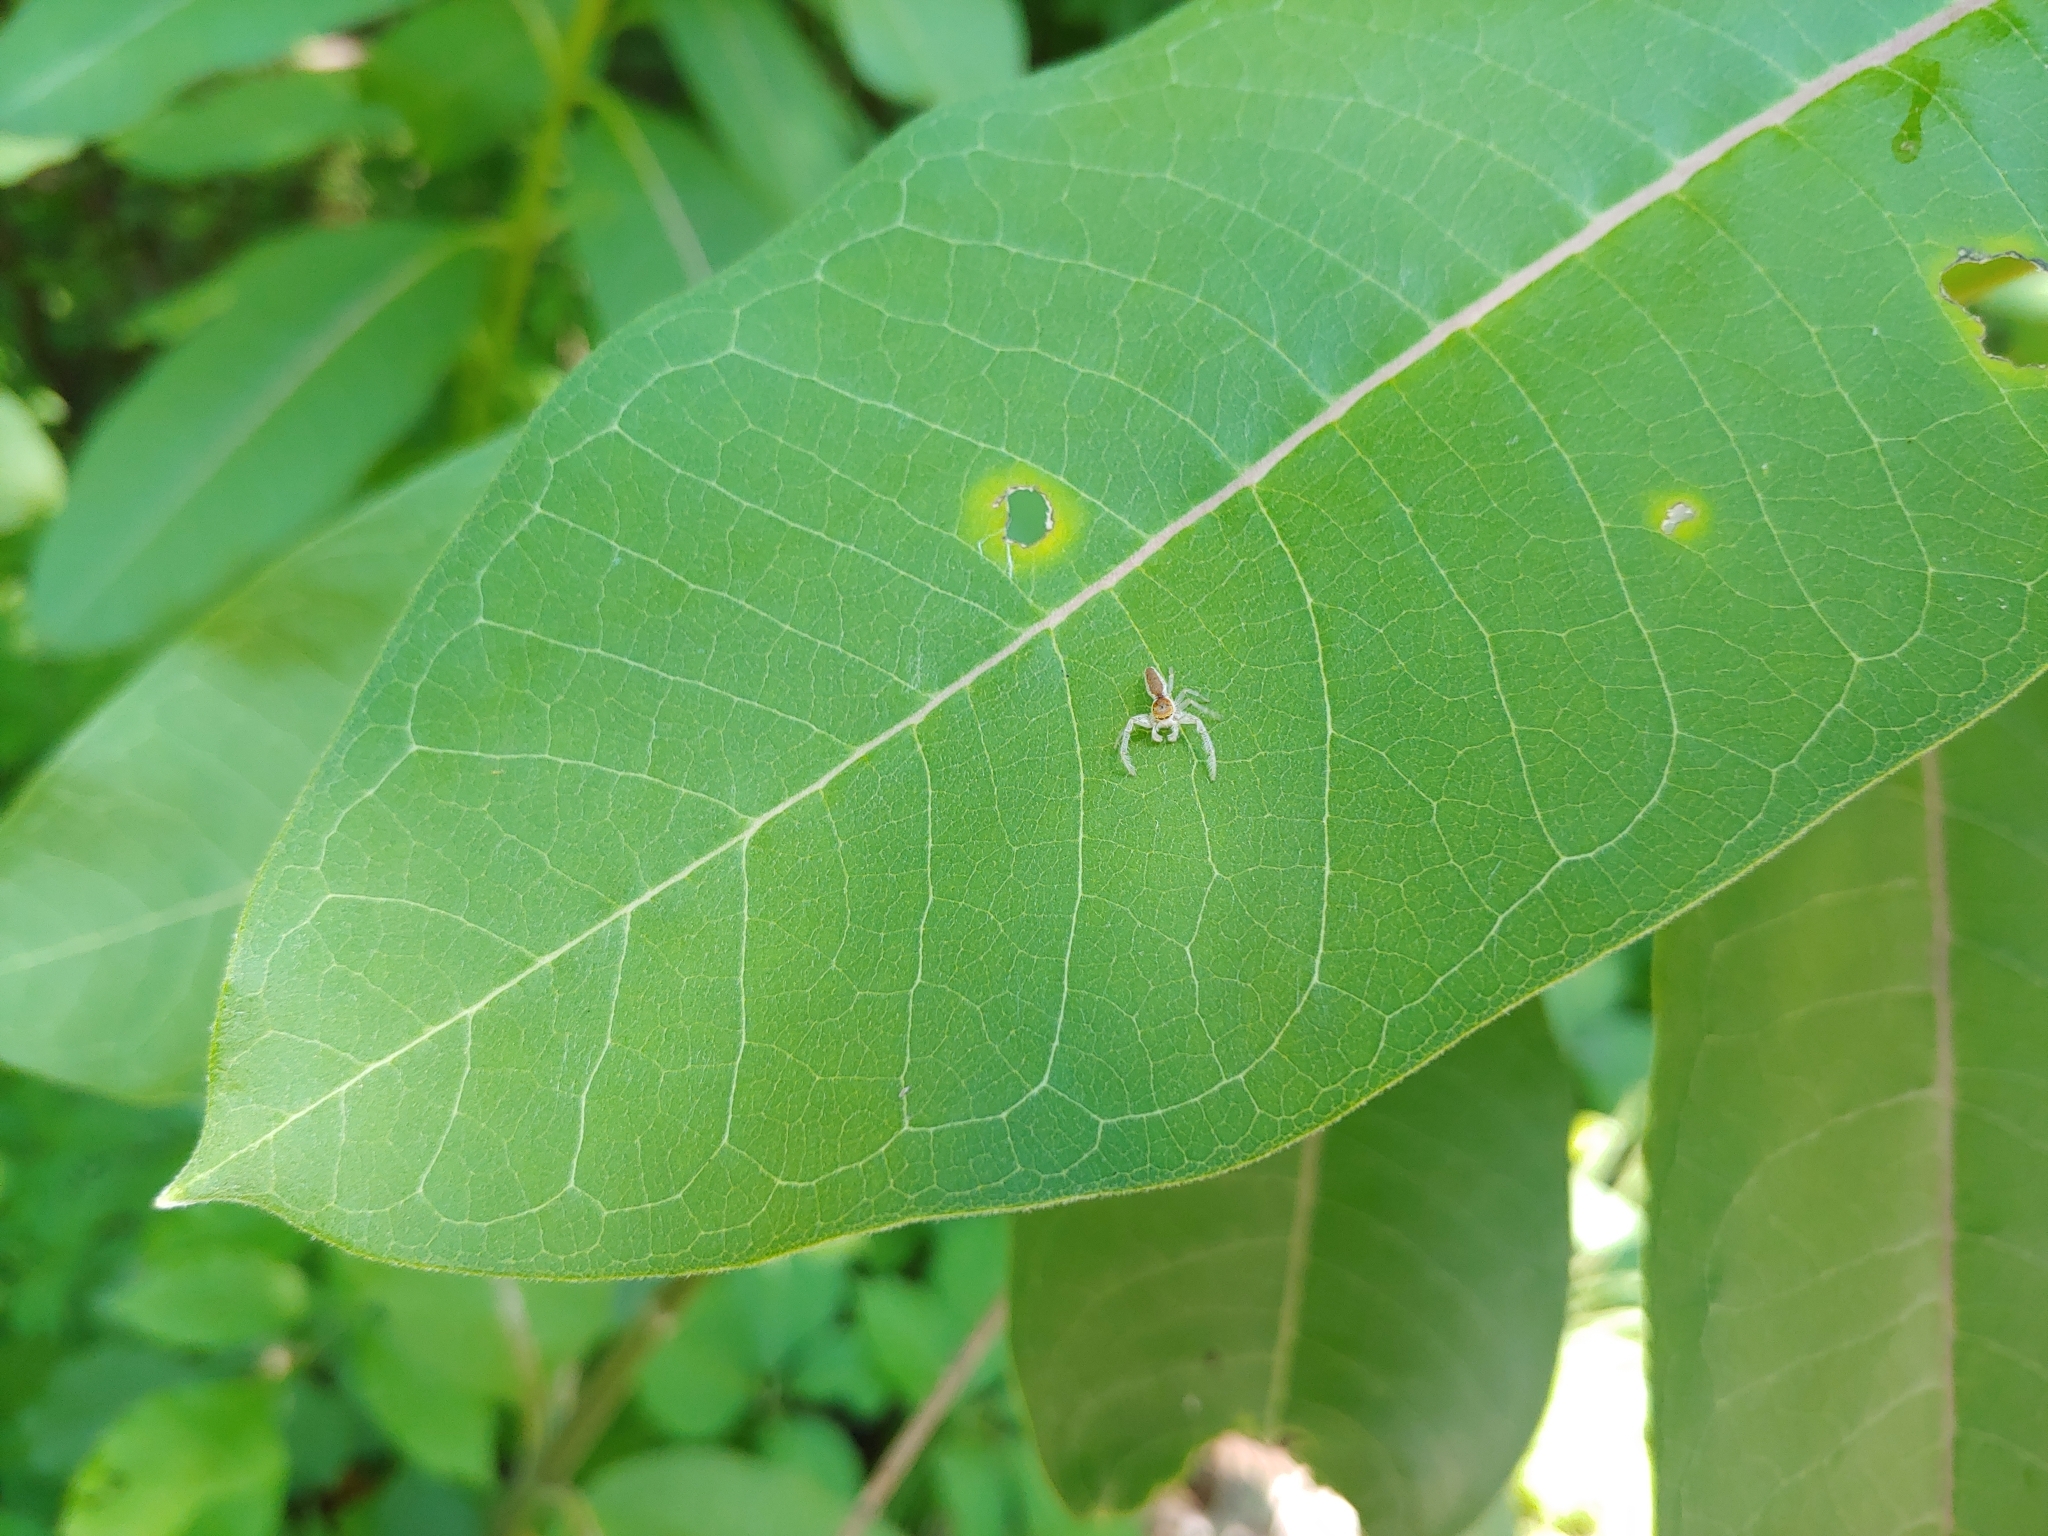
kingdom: Animalia
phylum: Arthropoda
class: Arachnida
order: Araneae
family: Salticidae
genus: Hentzia
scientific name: Hentzia mitrata
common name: White-jawed jumping spider
